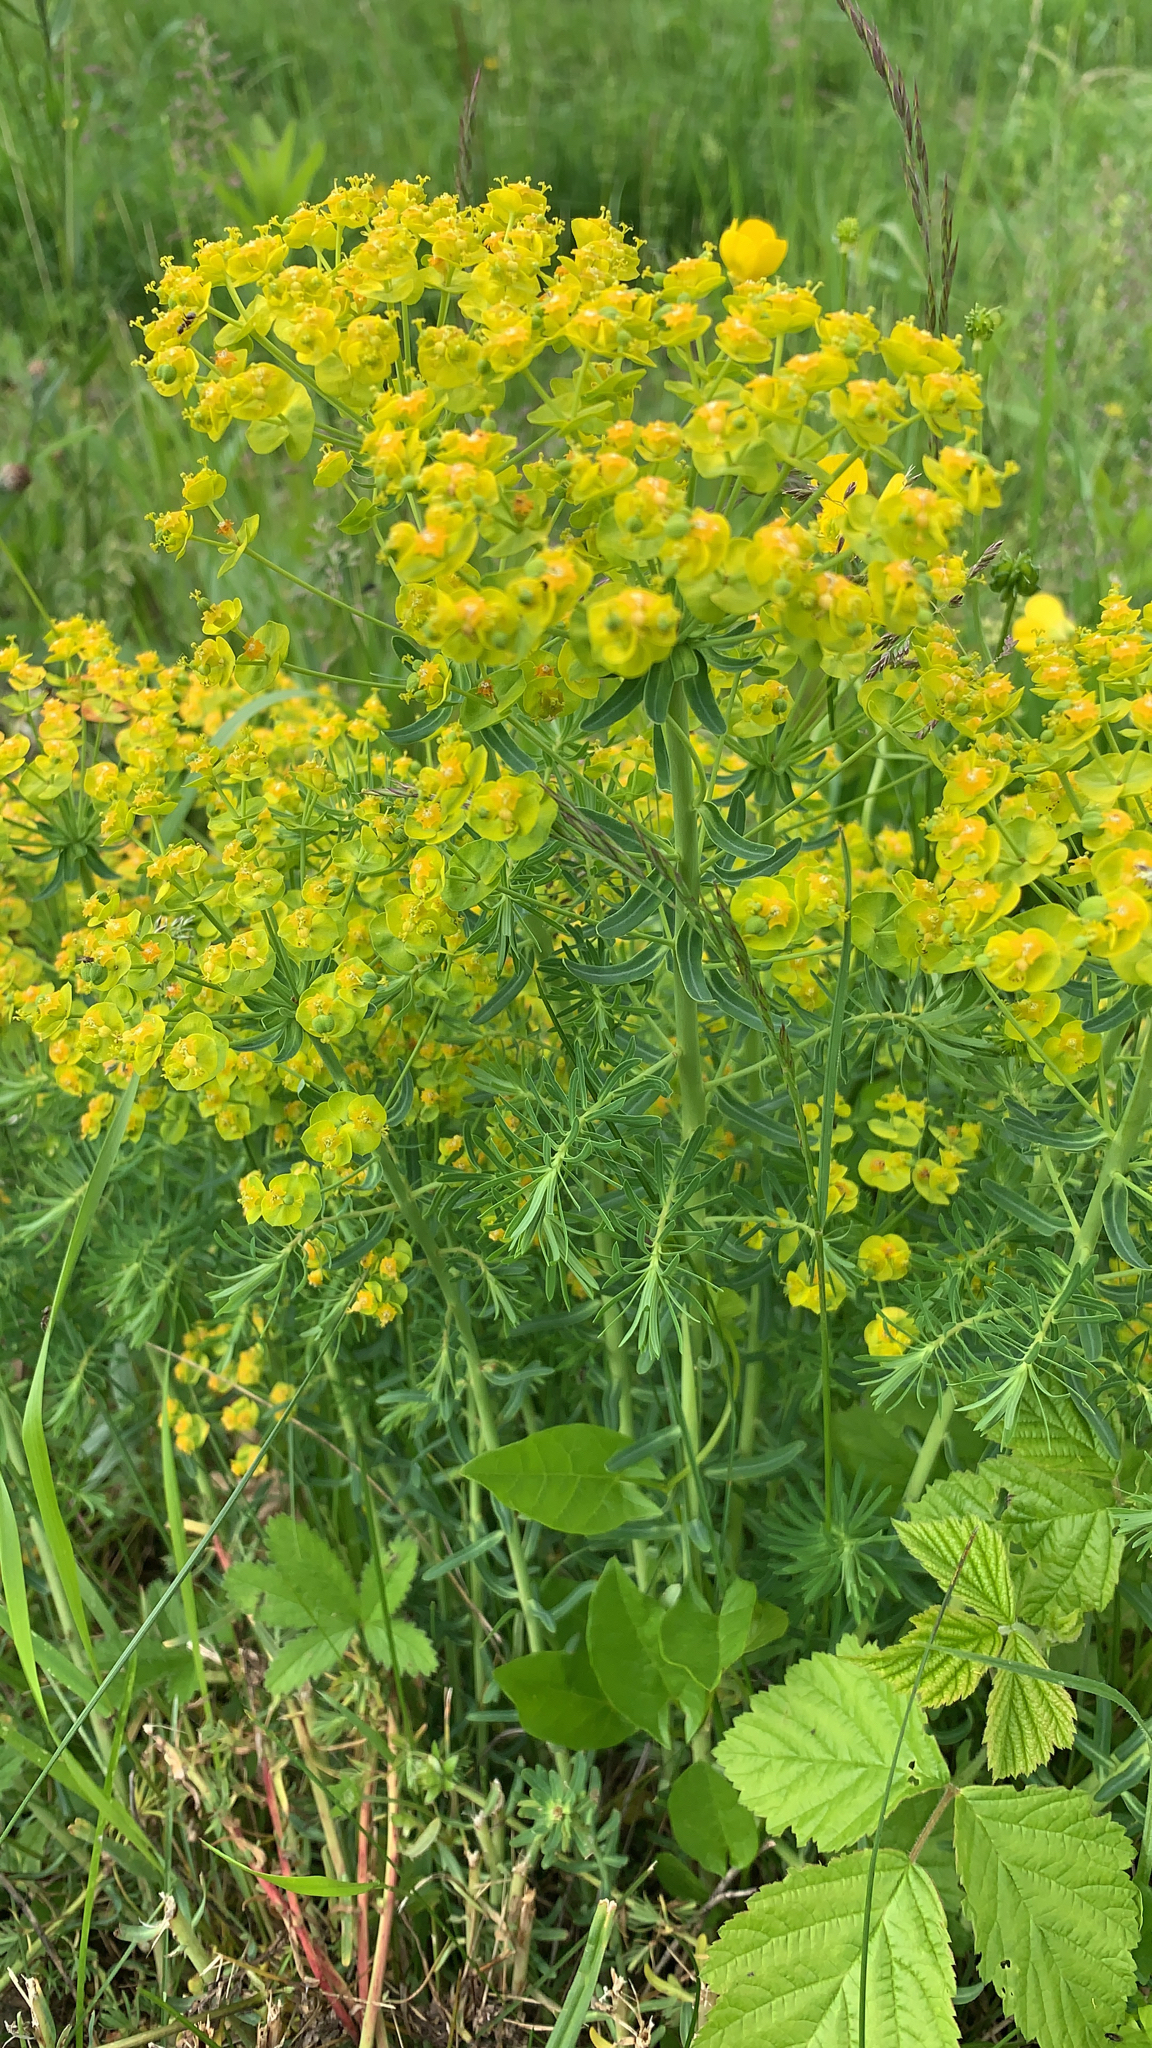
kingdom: Plantae
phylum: Tracheophyta
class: Magnoliopsida
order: Malpighiales
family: Euphorbiaceae
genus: Euphorbia
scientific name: Euphorbia cyparissias
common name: Cypress spurge
